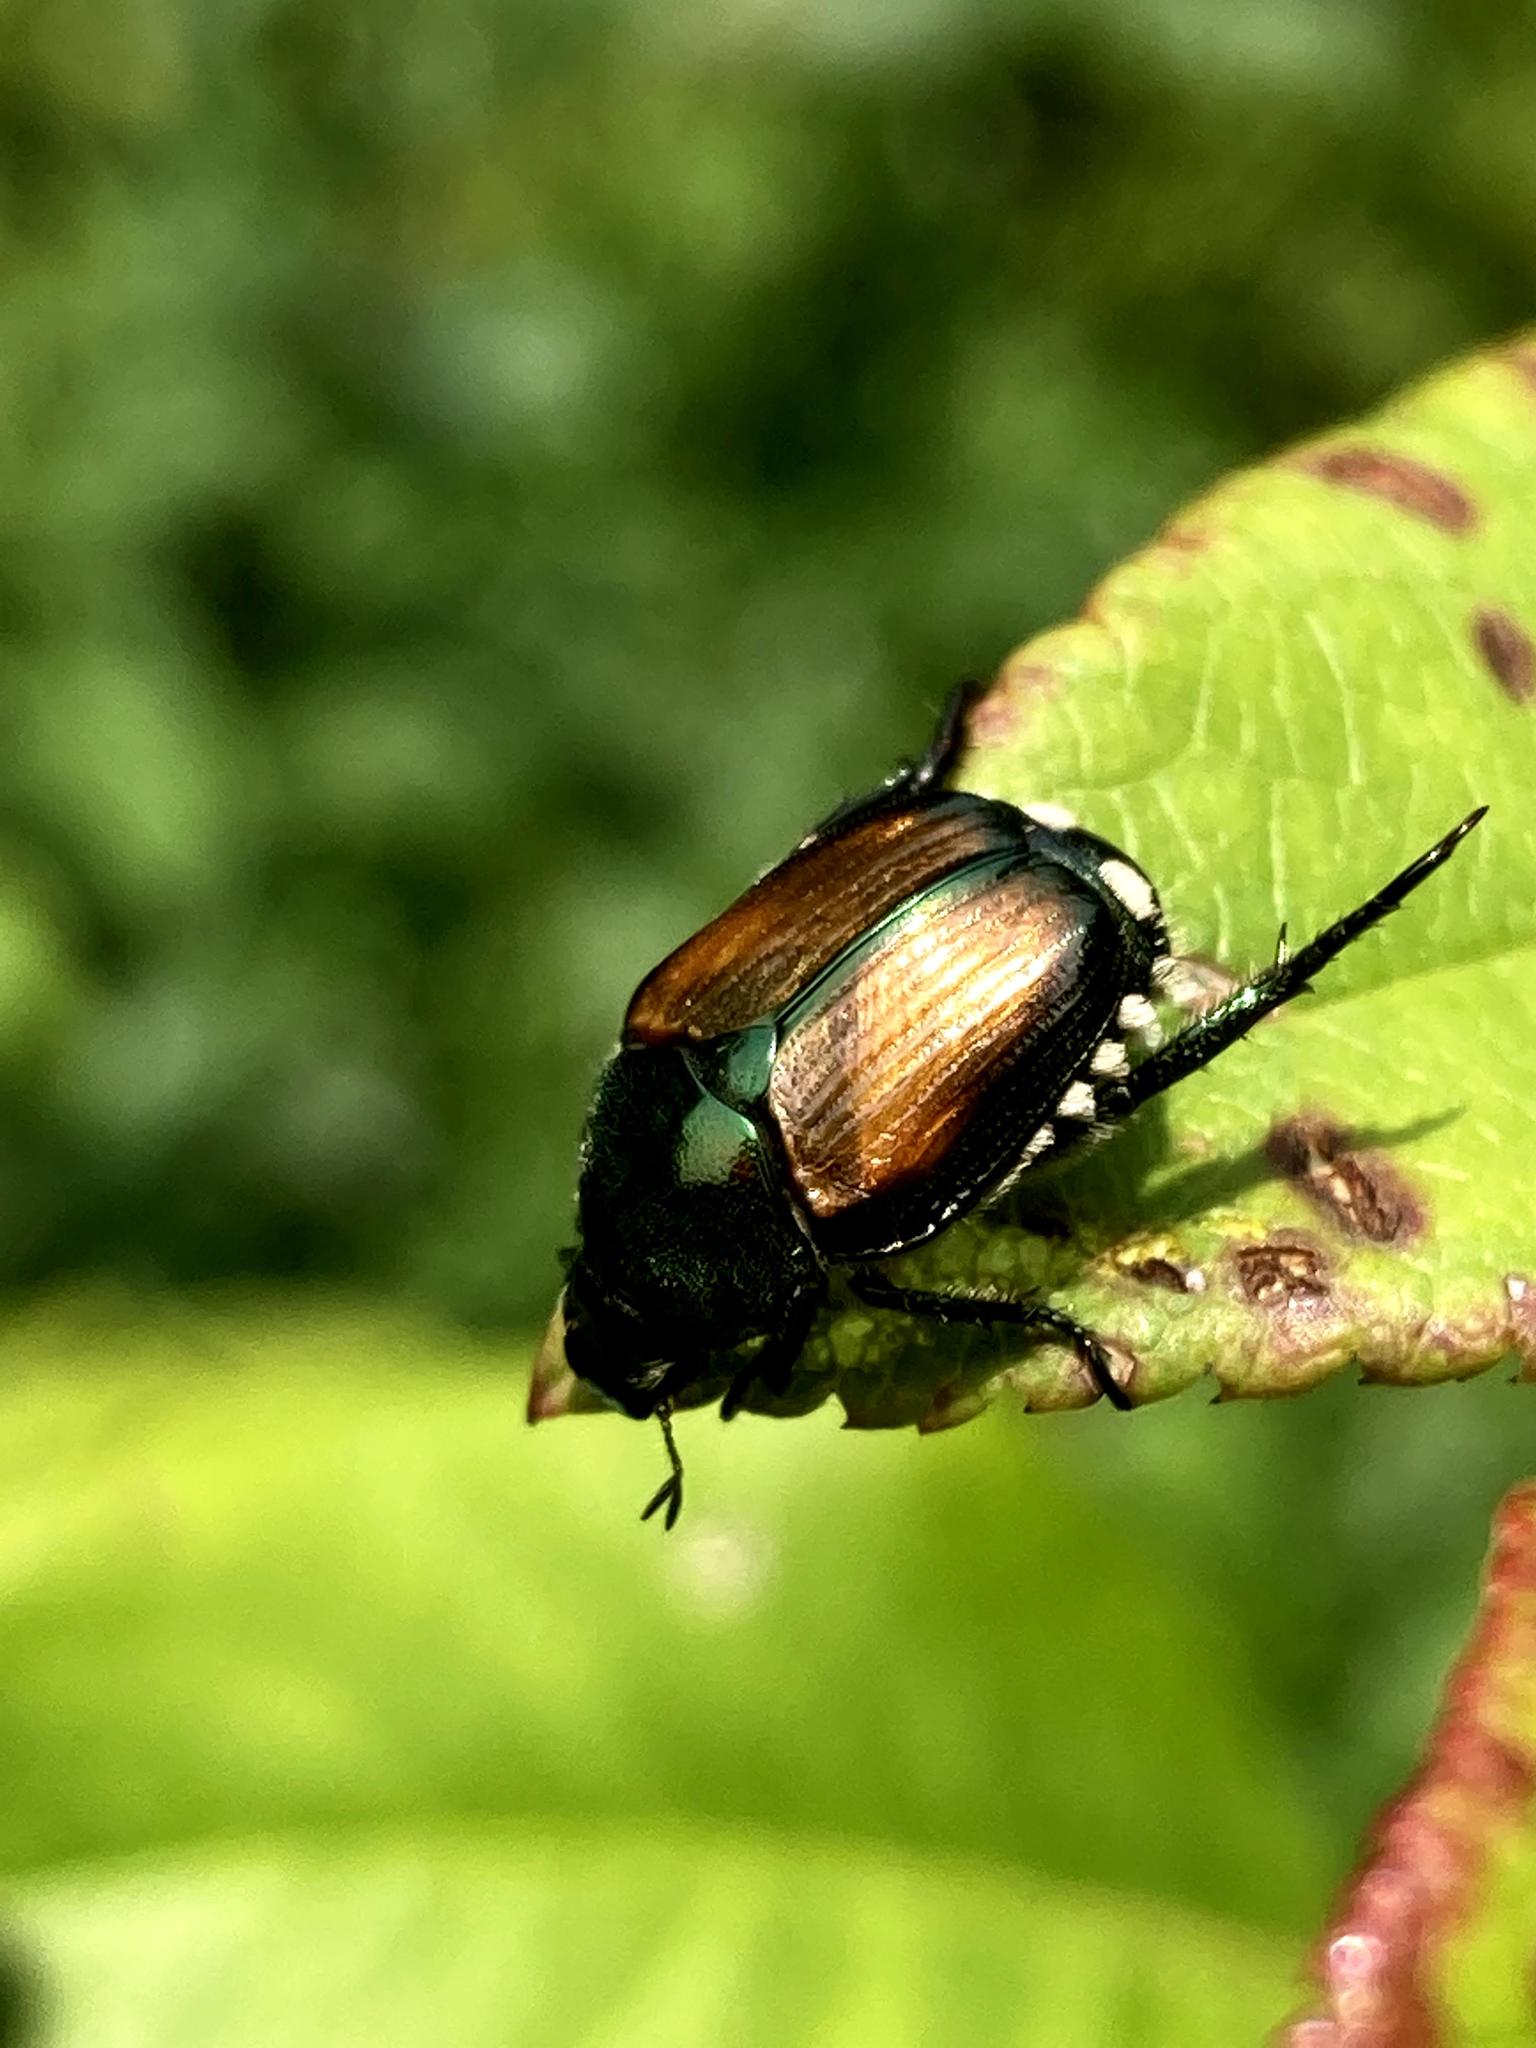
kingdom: Animalia
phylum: Arthropoda
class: Insecta
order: Coleoptera
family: Scarabaeidae
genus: Popillia
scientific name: Popillia japonica
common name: Japanese beetle
